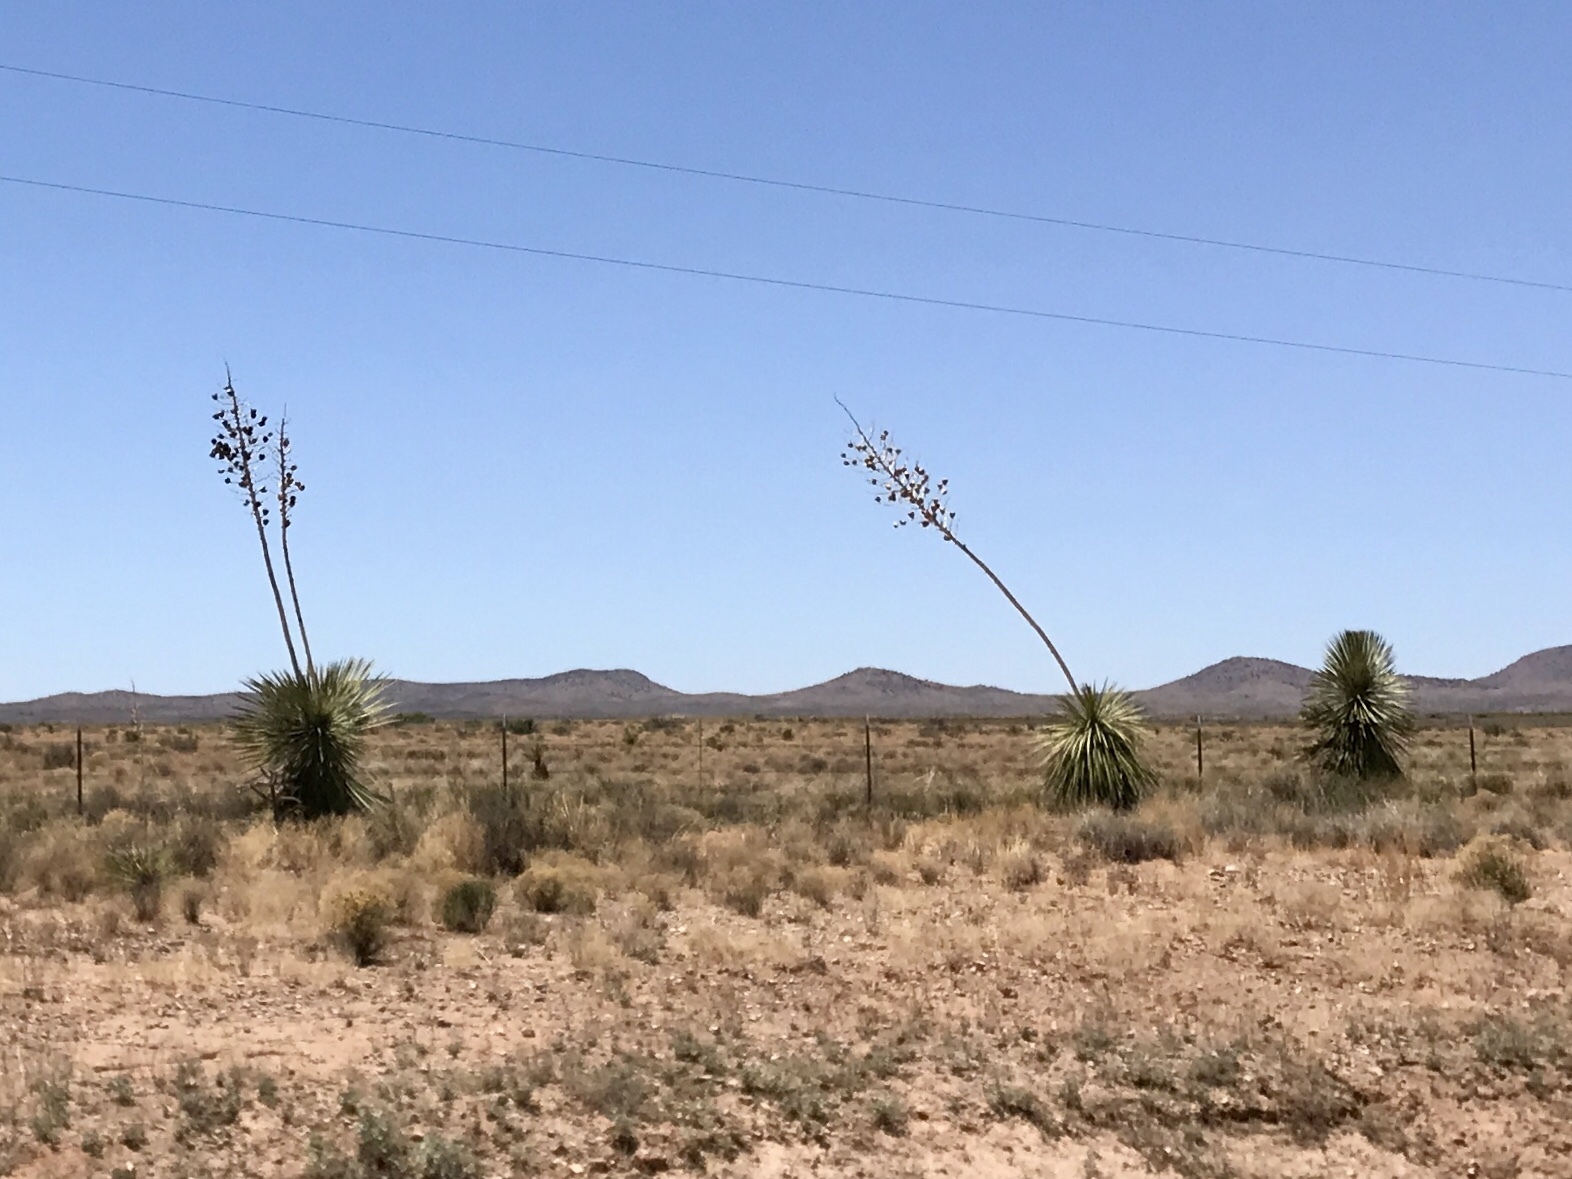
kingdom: Plantae
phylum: Tracheophyta
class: Liliopsida
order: Asparagales
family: Asparagaceae
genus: Yucca
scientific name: Yucca elata
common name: Palmella
